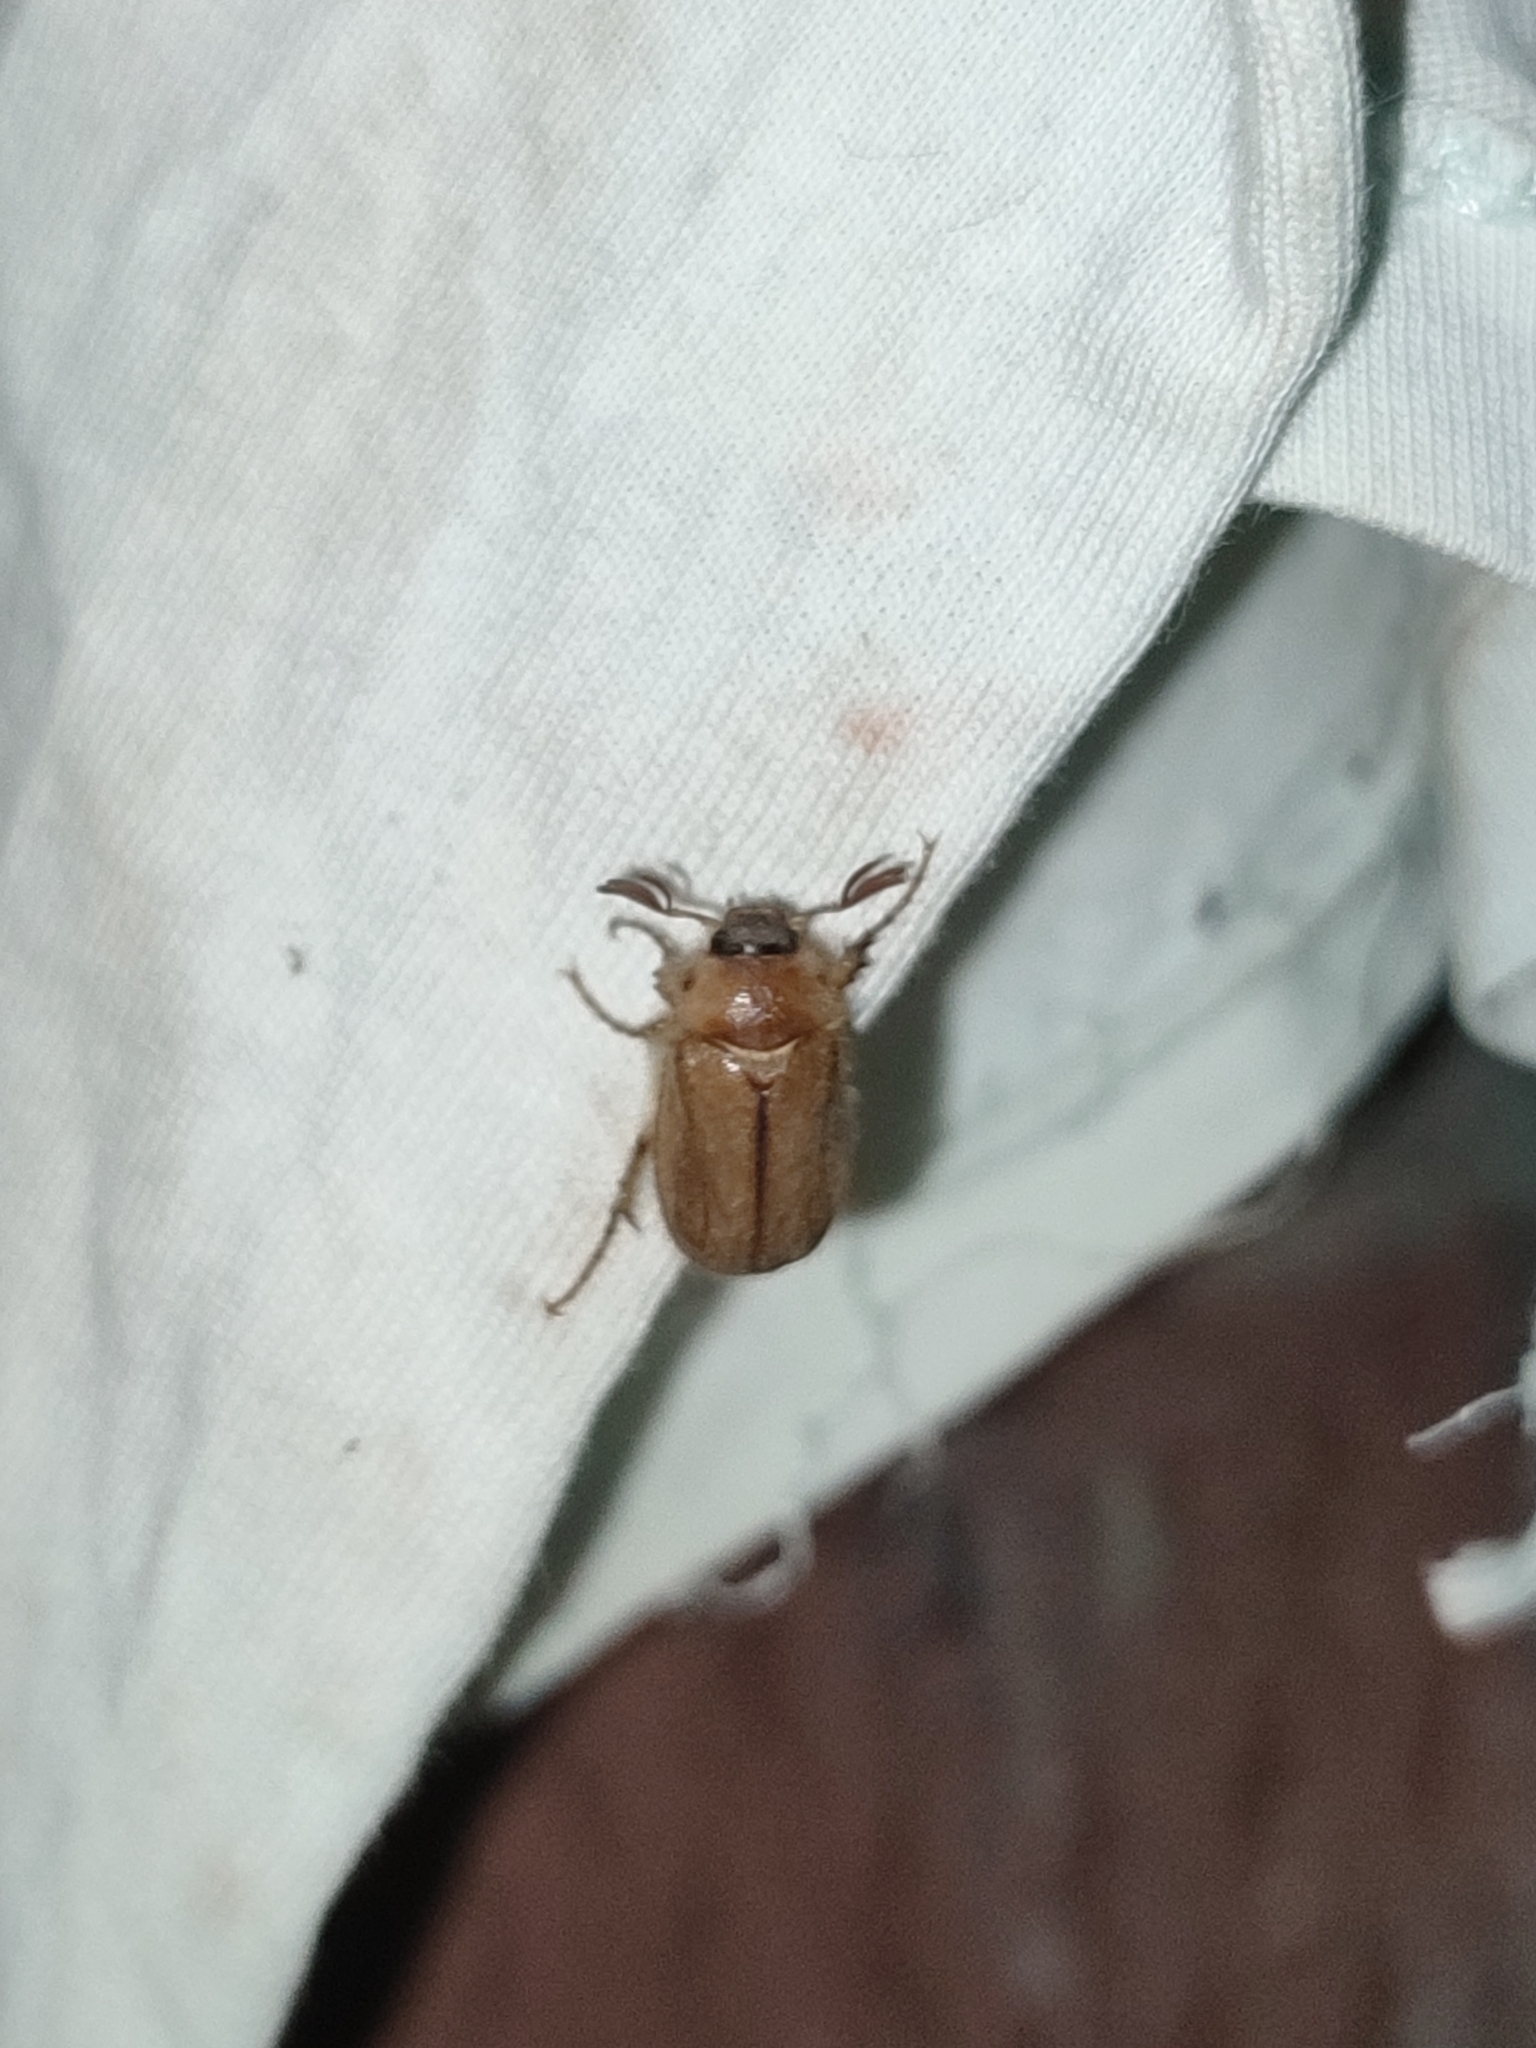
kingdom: Animalia
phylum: Arthropoda
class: Insecta
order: Coleoptera
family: Scarabaeidae
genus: Monotropus
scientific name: Monotropus nordmanni
